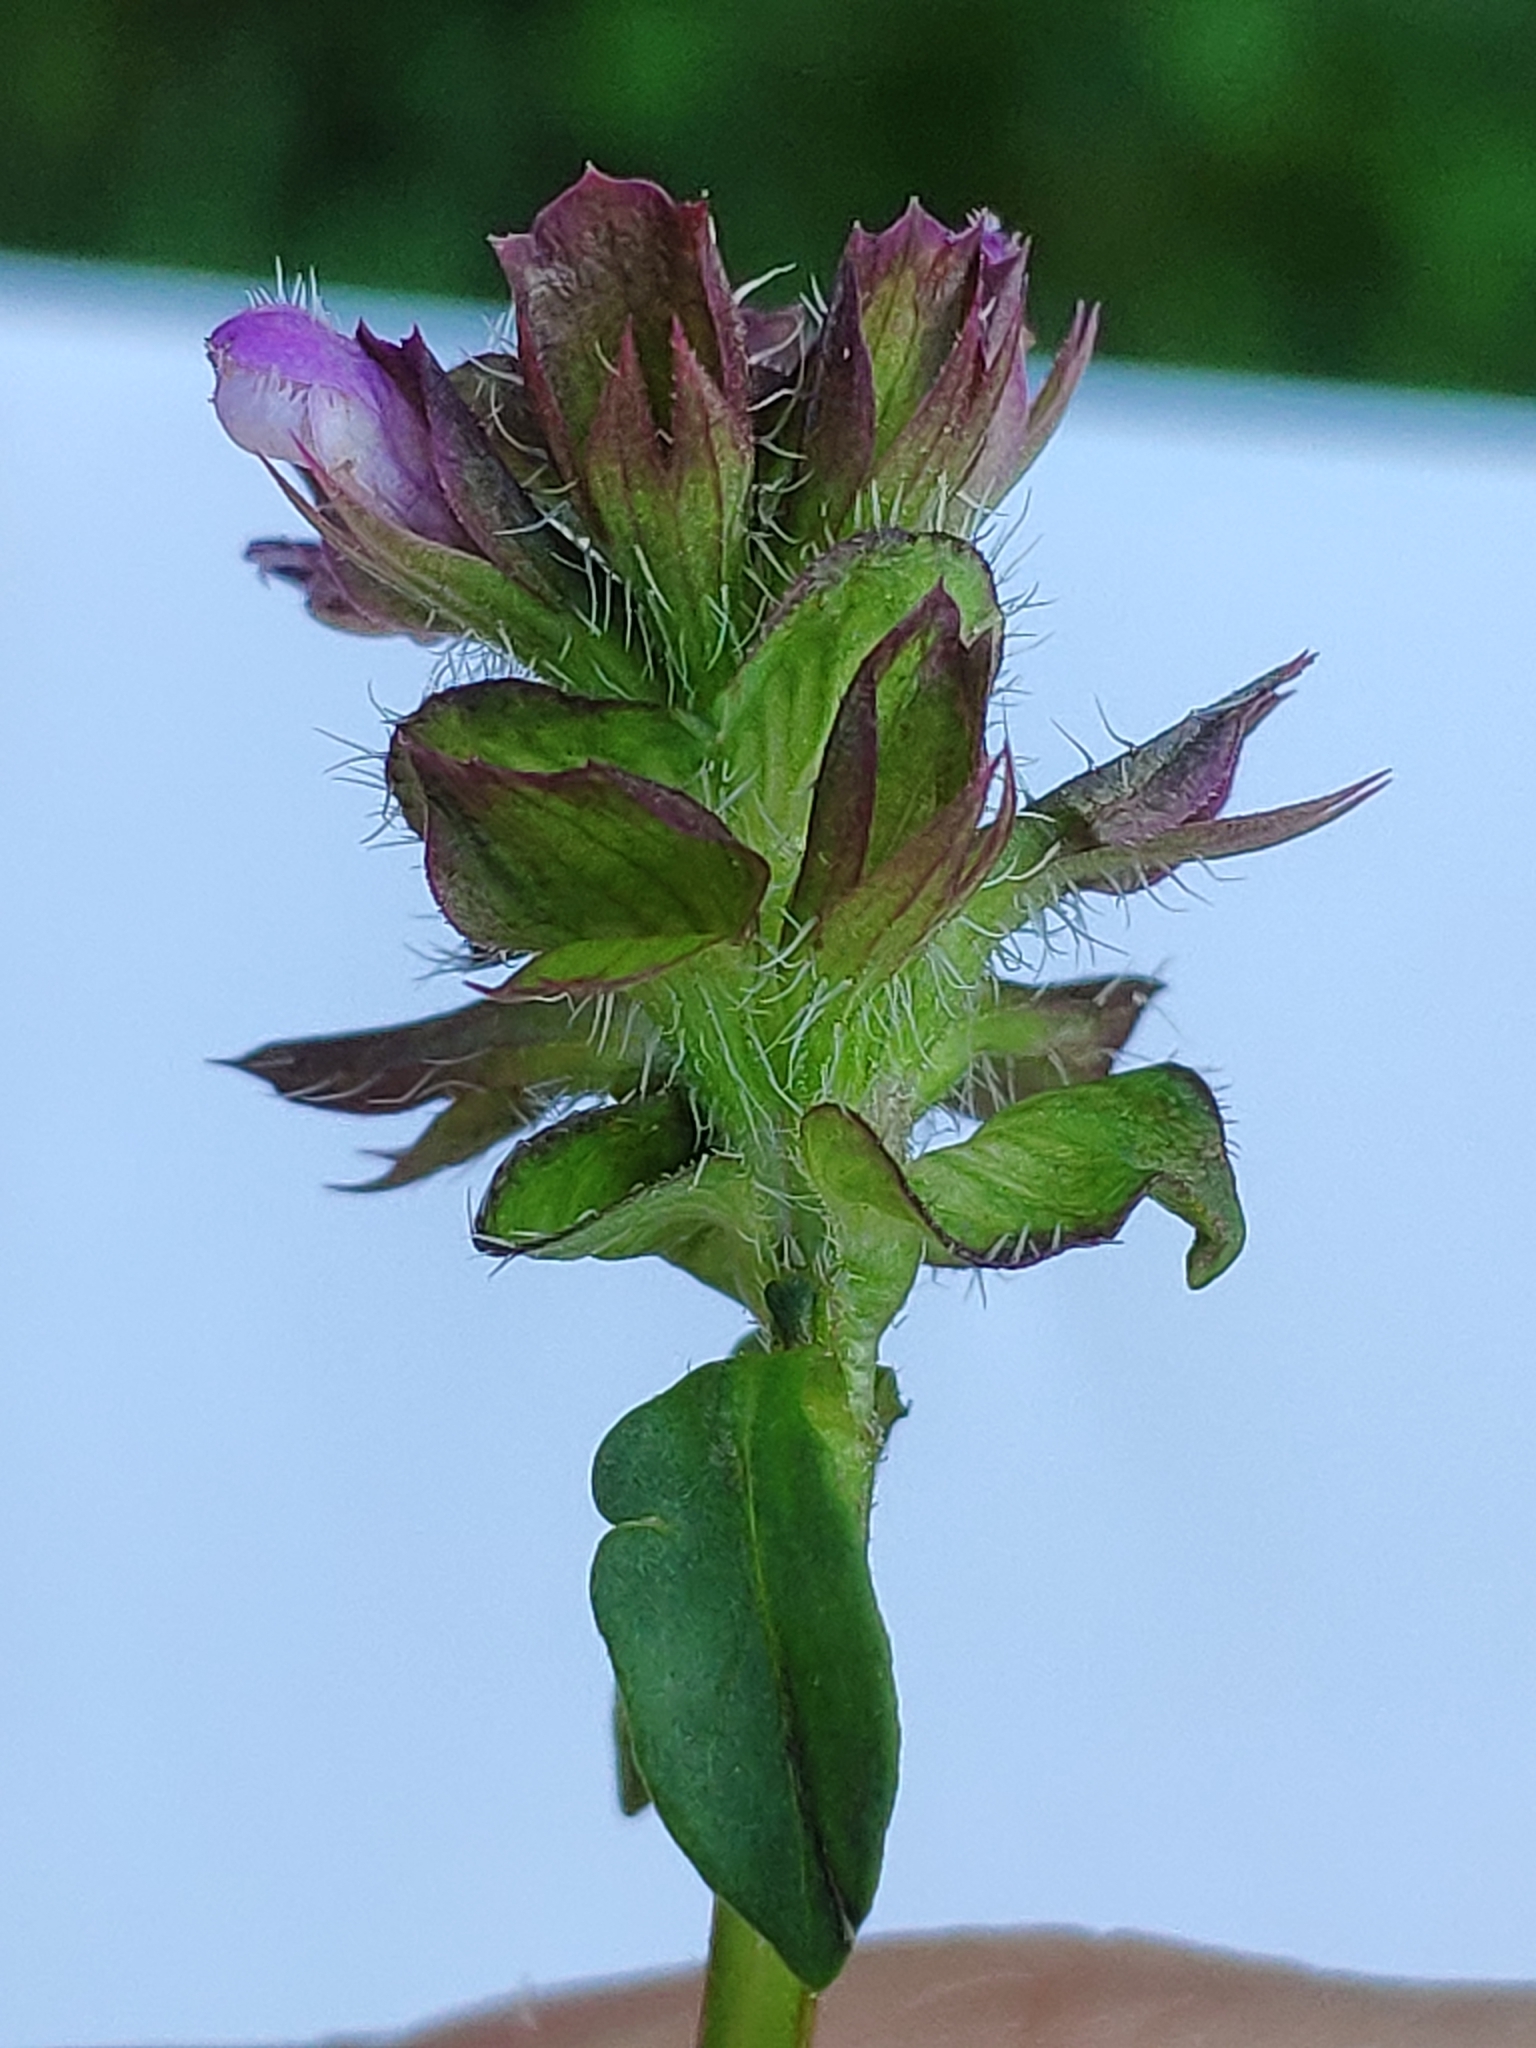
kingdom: Plantae
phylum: Tracheophyta
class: Magnoliopsida
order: Lamiales
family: Lamiaceae
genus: Prunella
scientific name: Prunella vulgaris
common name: Heal-all
